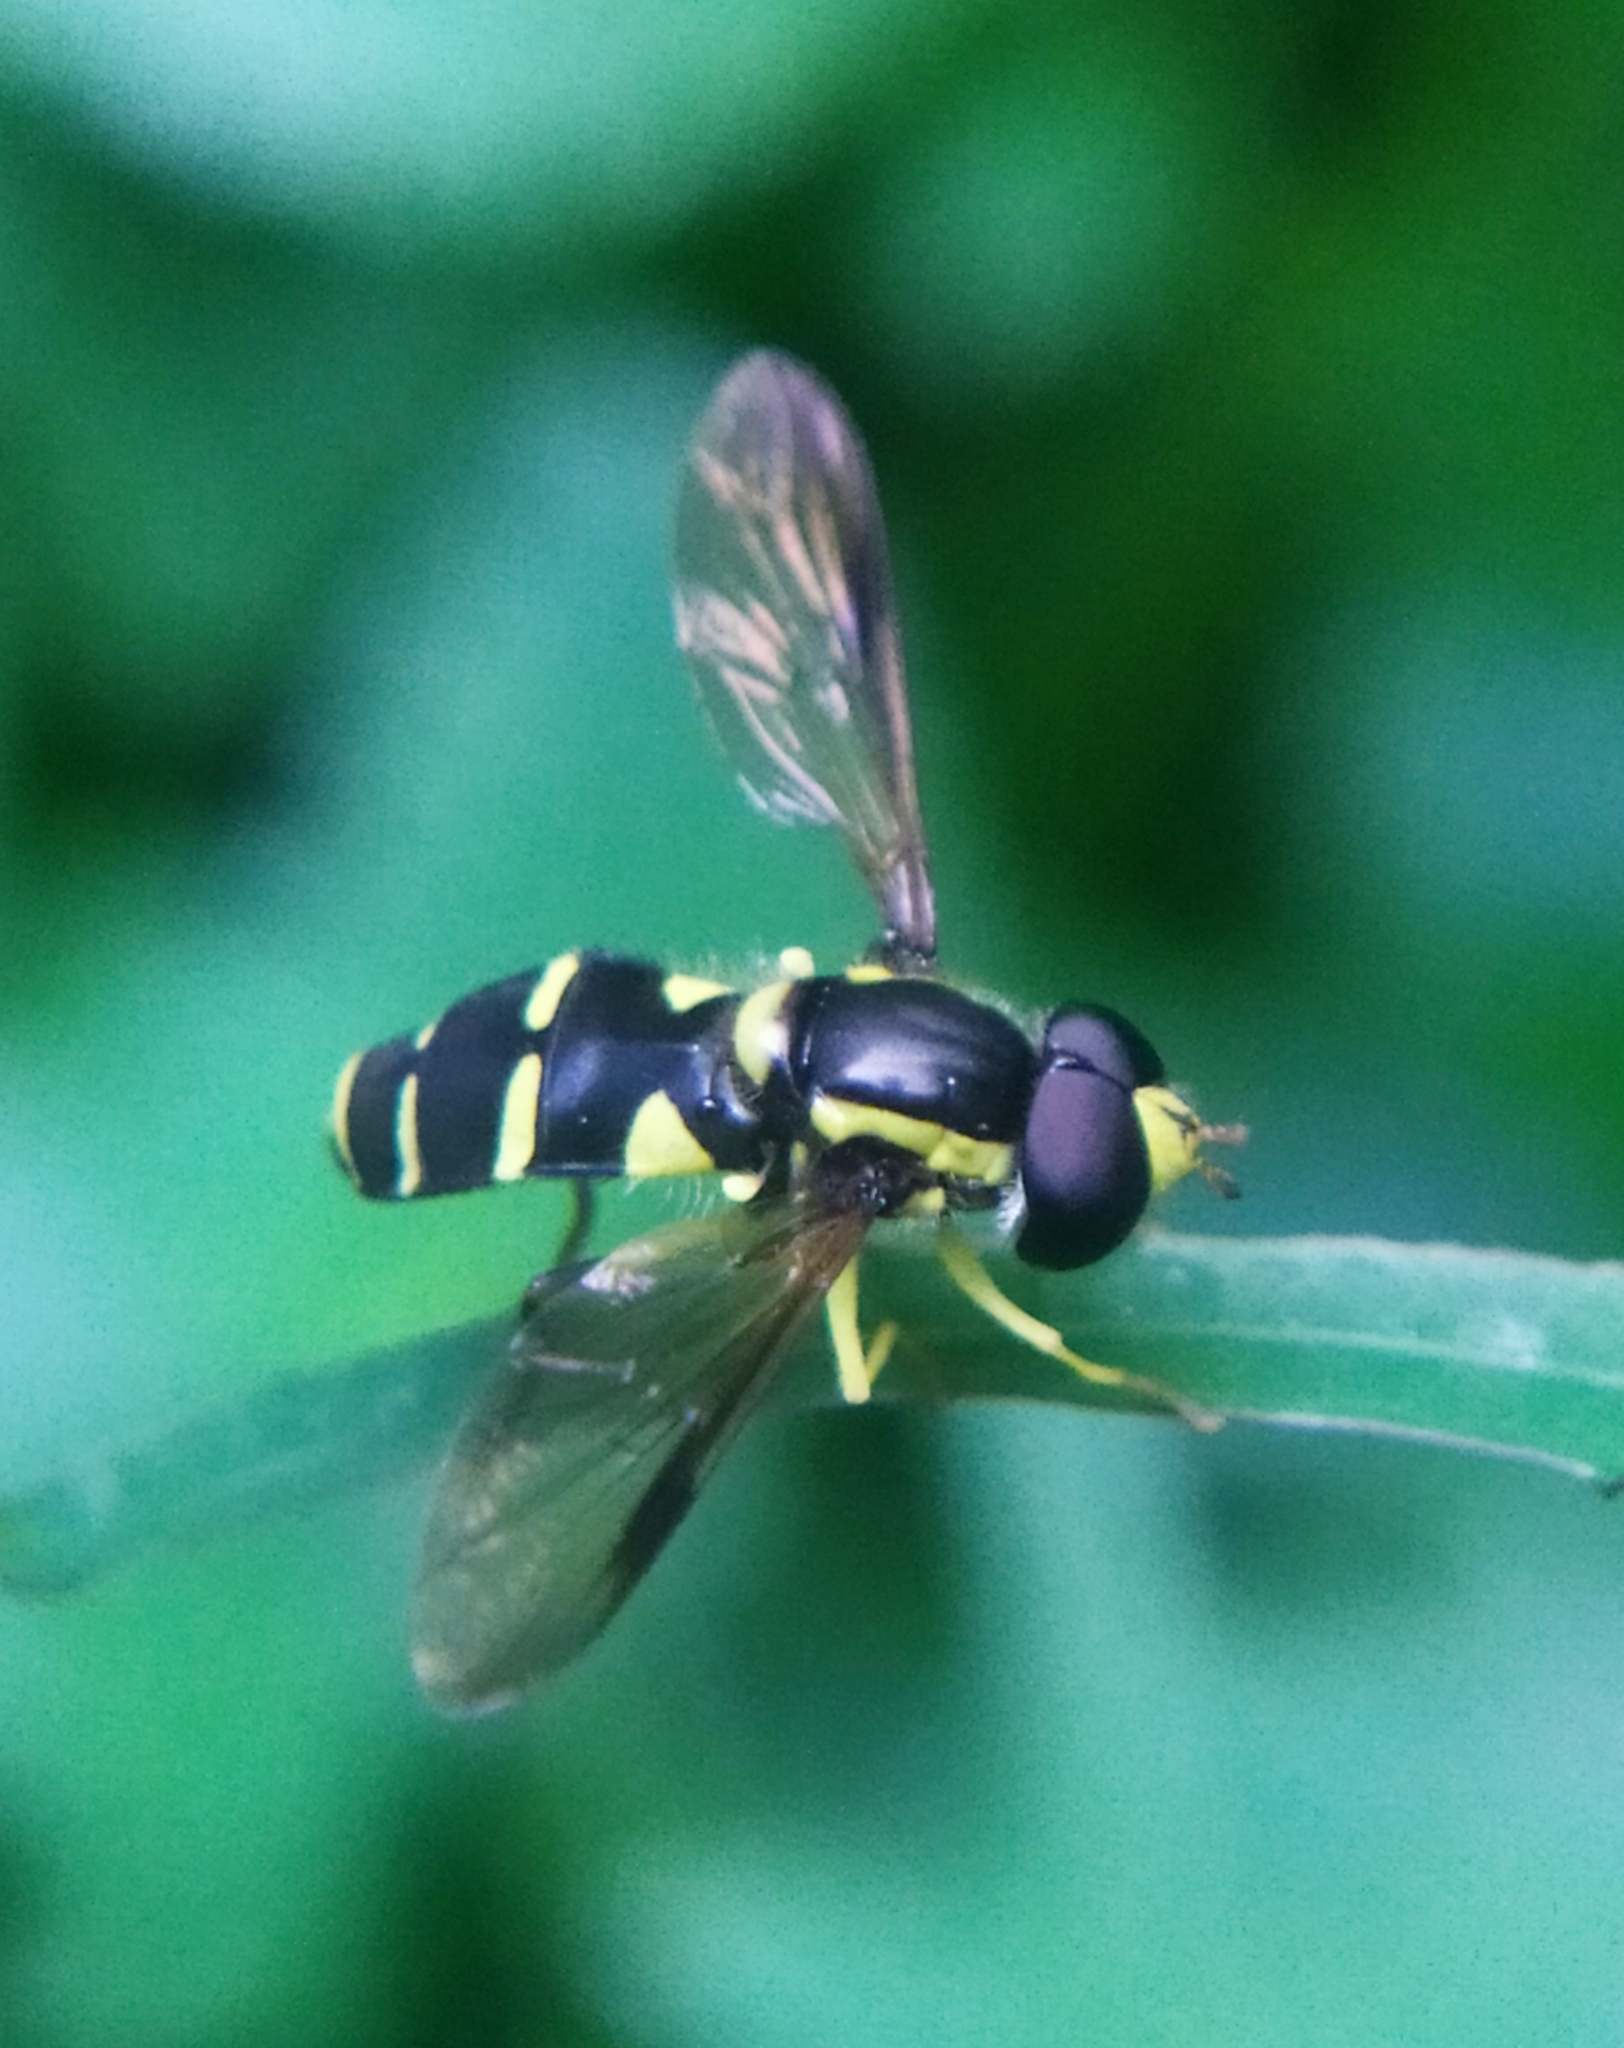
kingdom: Animalia
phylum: Arthropoda
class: Insecta
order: Diptera
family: Syrphidae
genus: Philhelius
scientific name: Philhelius dives
